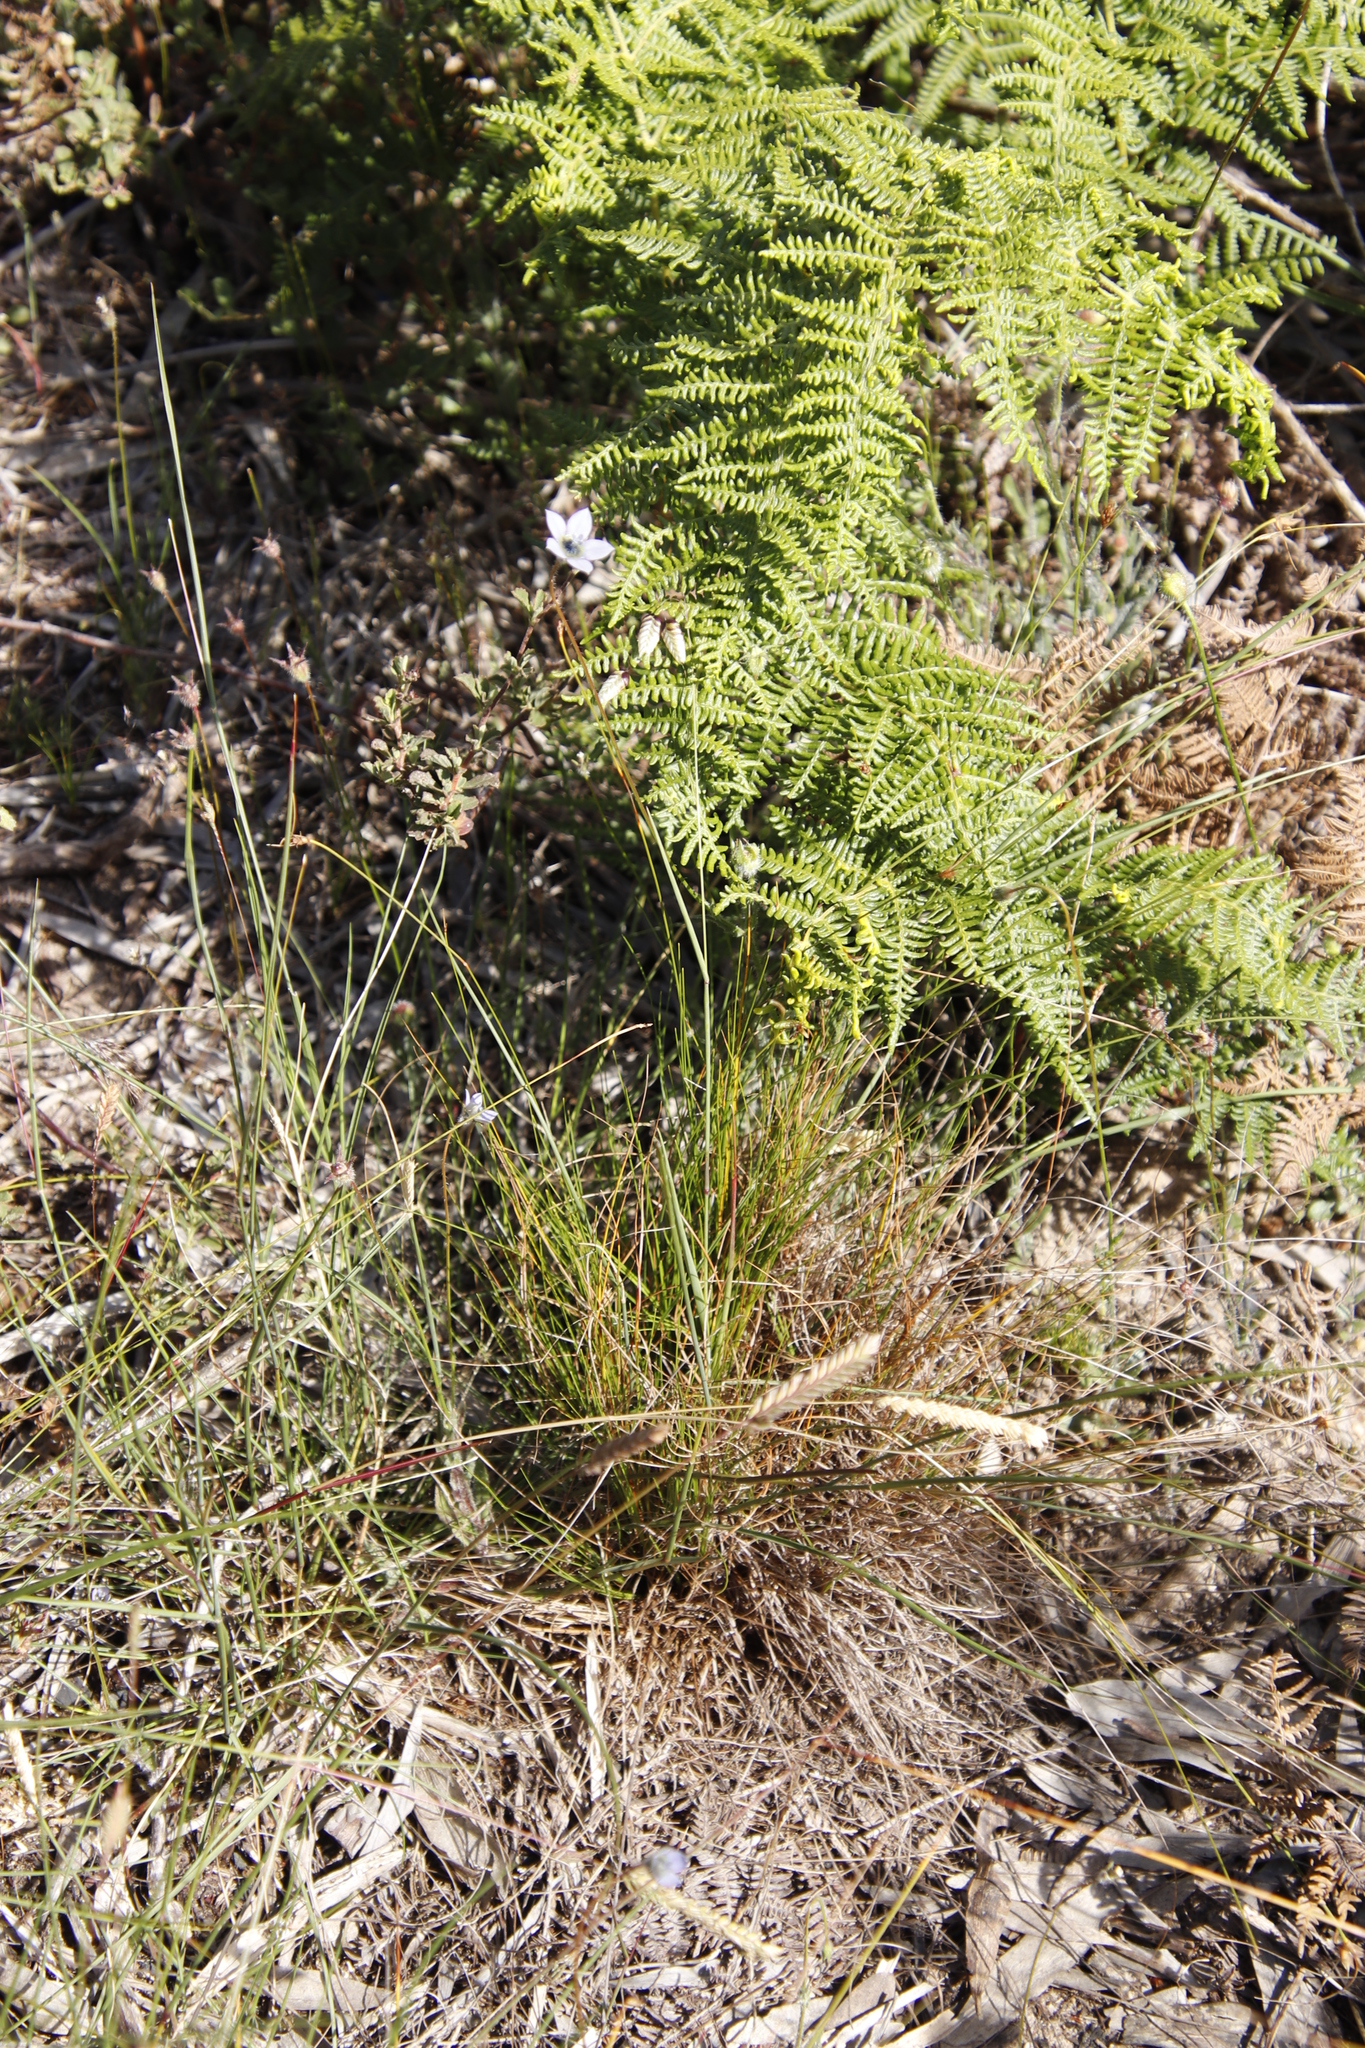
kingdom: Plantae
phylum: Tracheophyta
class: Magnoliopsida
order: Asterales
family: Campanulaceae
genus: Wahlenbergia
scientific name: Wahlenbergia capensis
